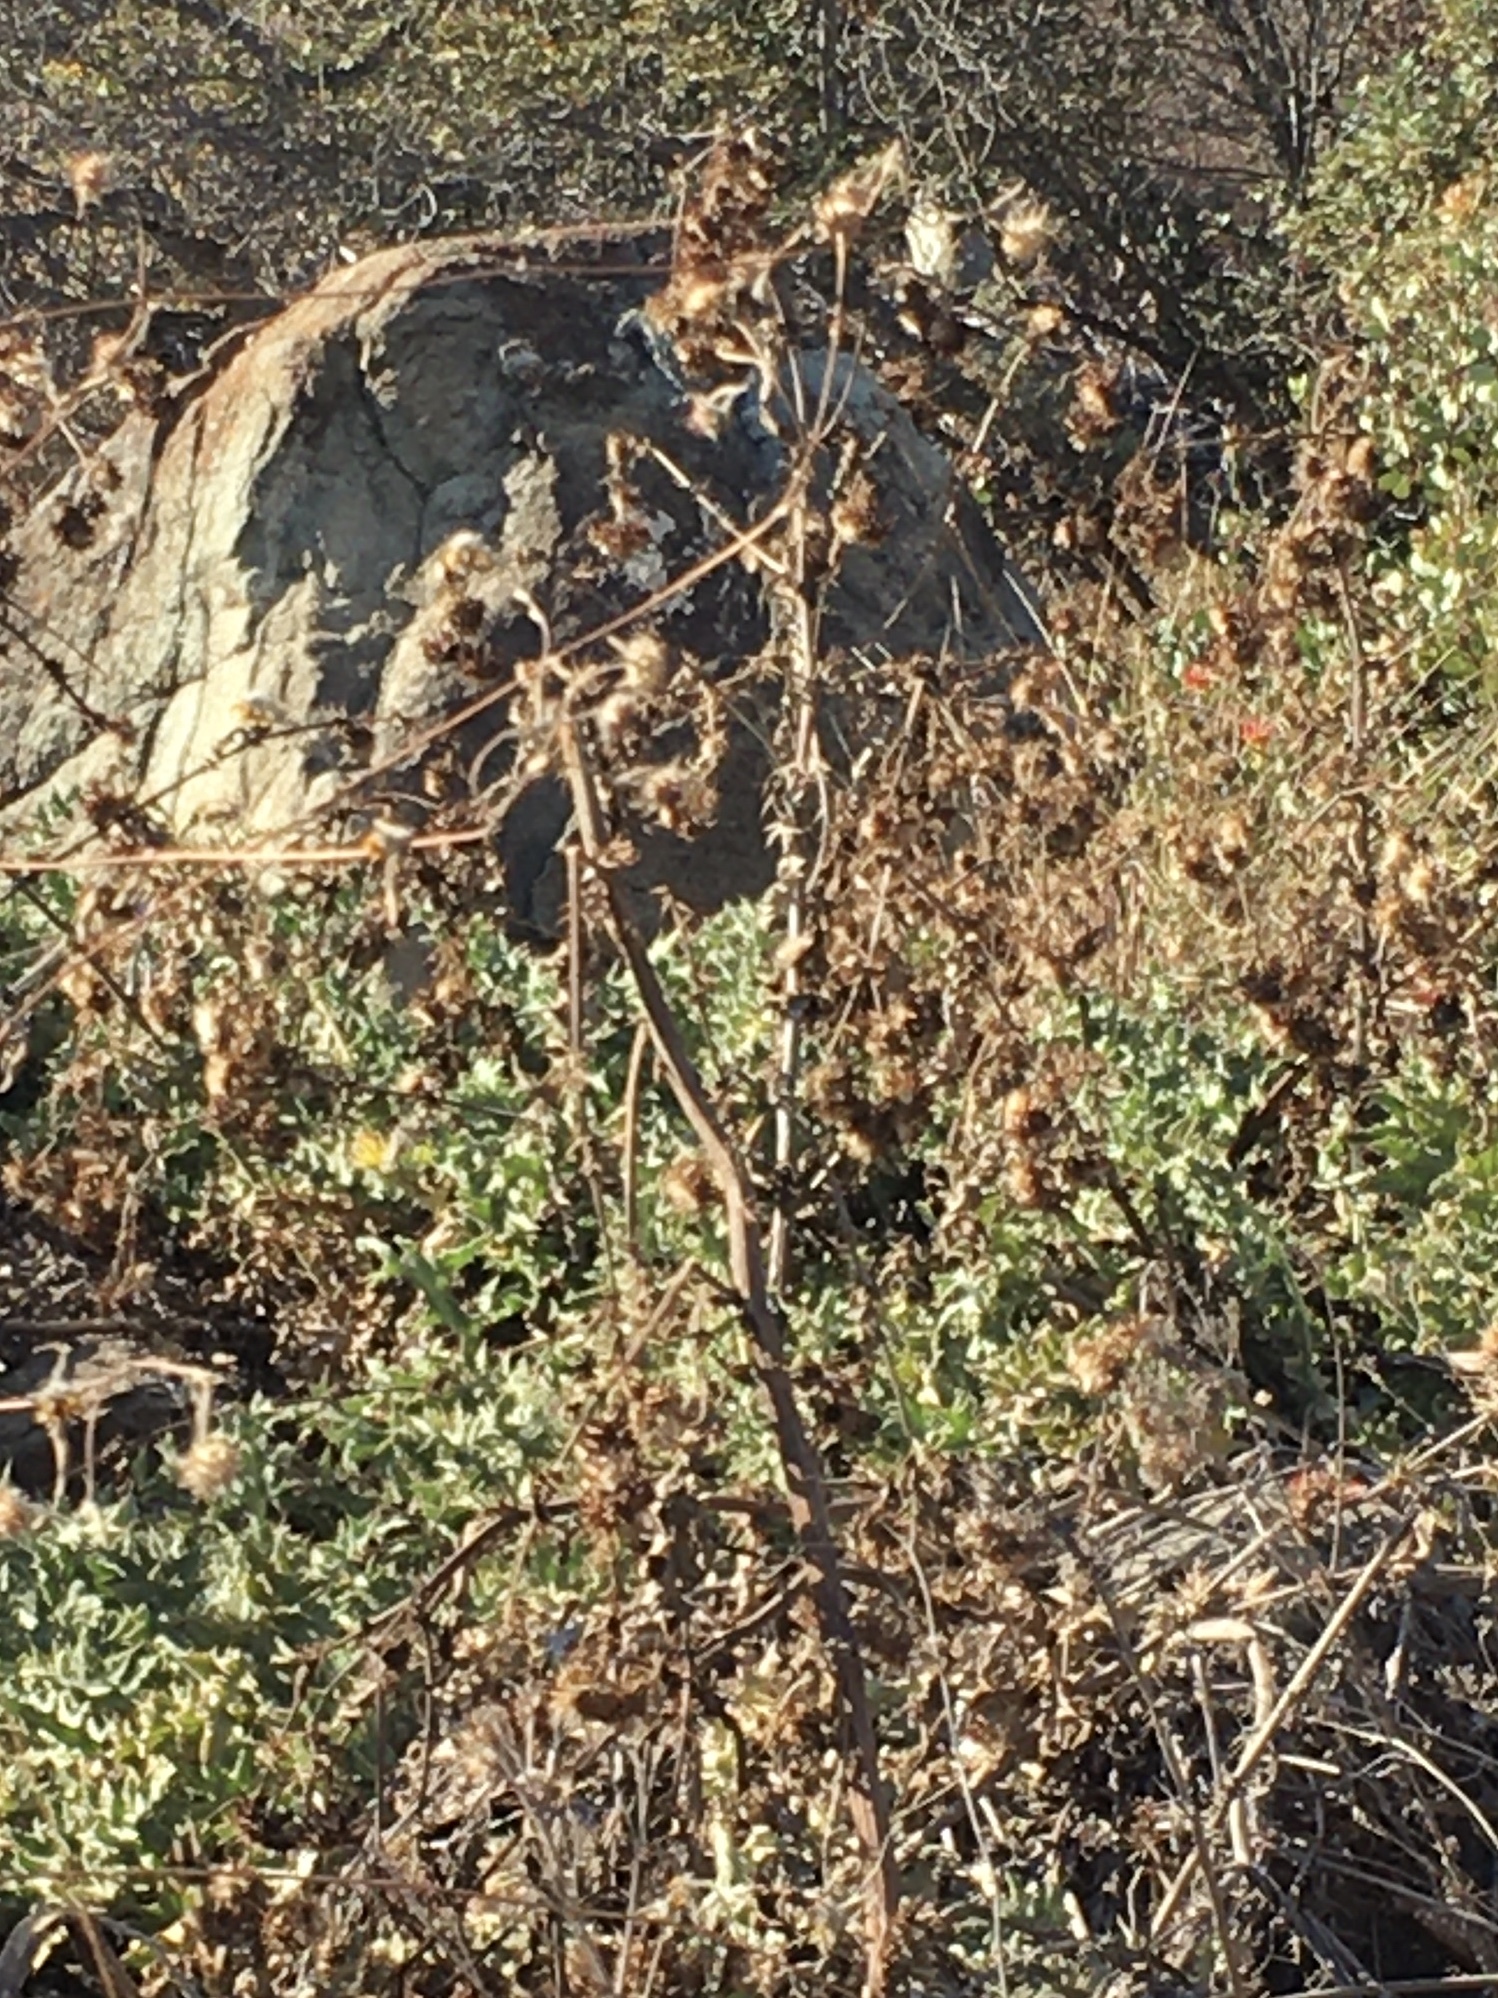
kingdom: Plantae
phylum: Tracheophyta
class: Magnoliopsida
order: Asterales
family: Asteraceae
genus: Helianthus
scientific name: Helianthus exilis
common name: Serpentine sunflower
